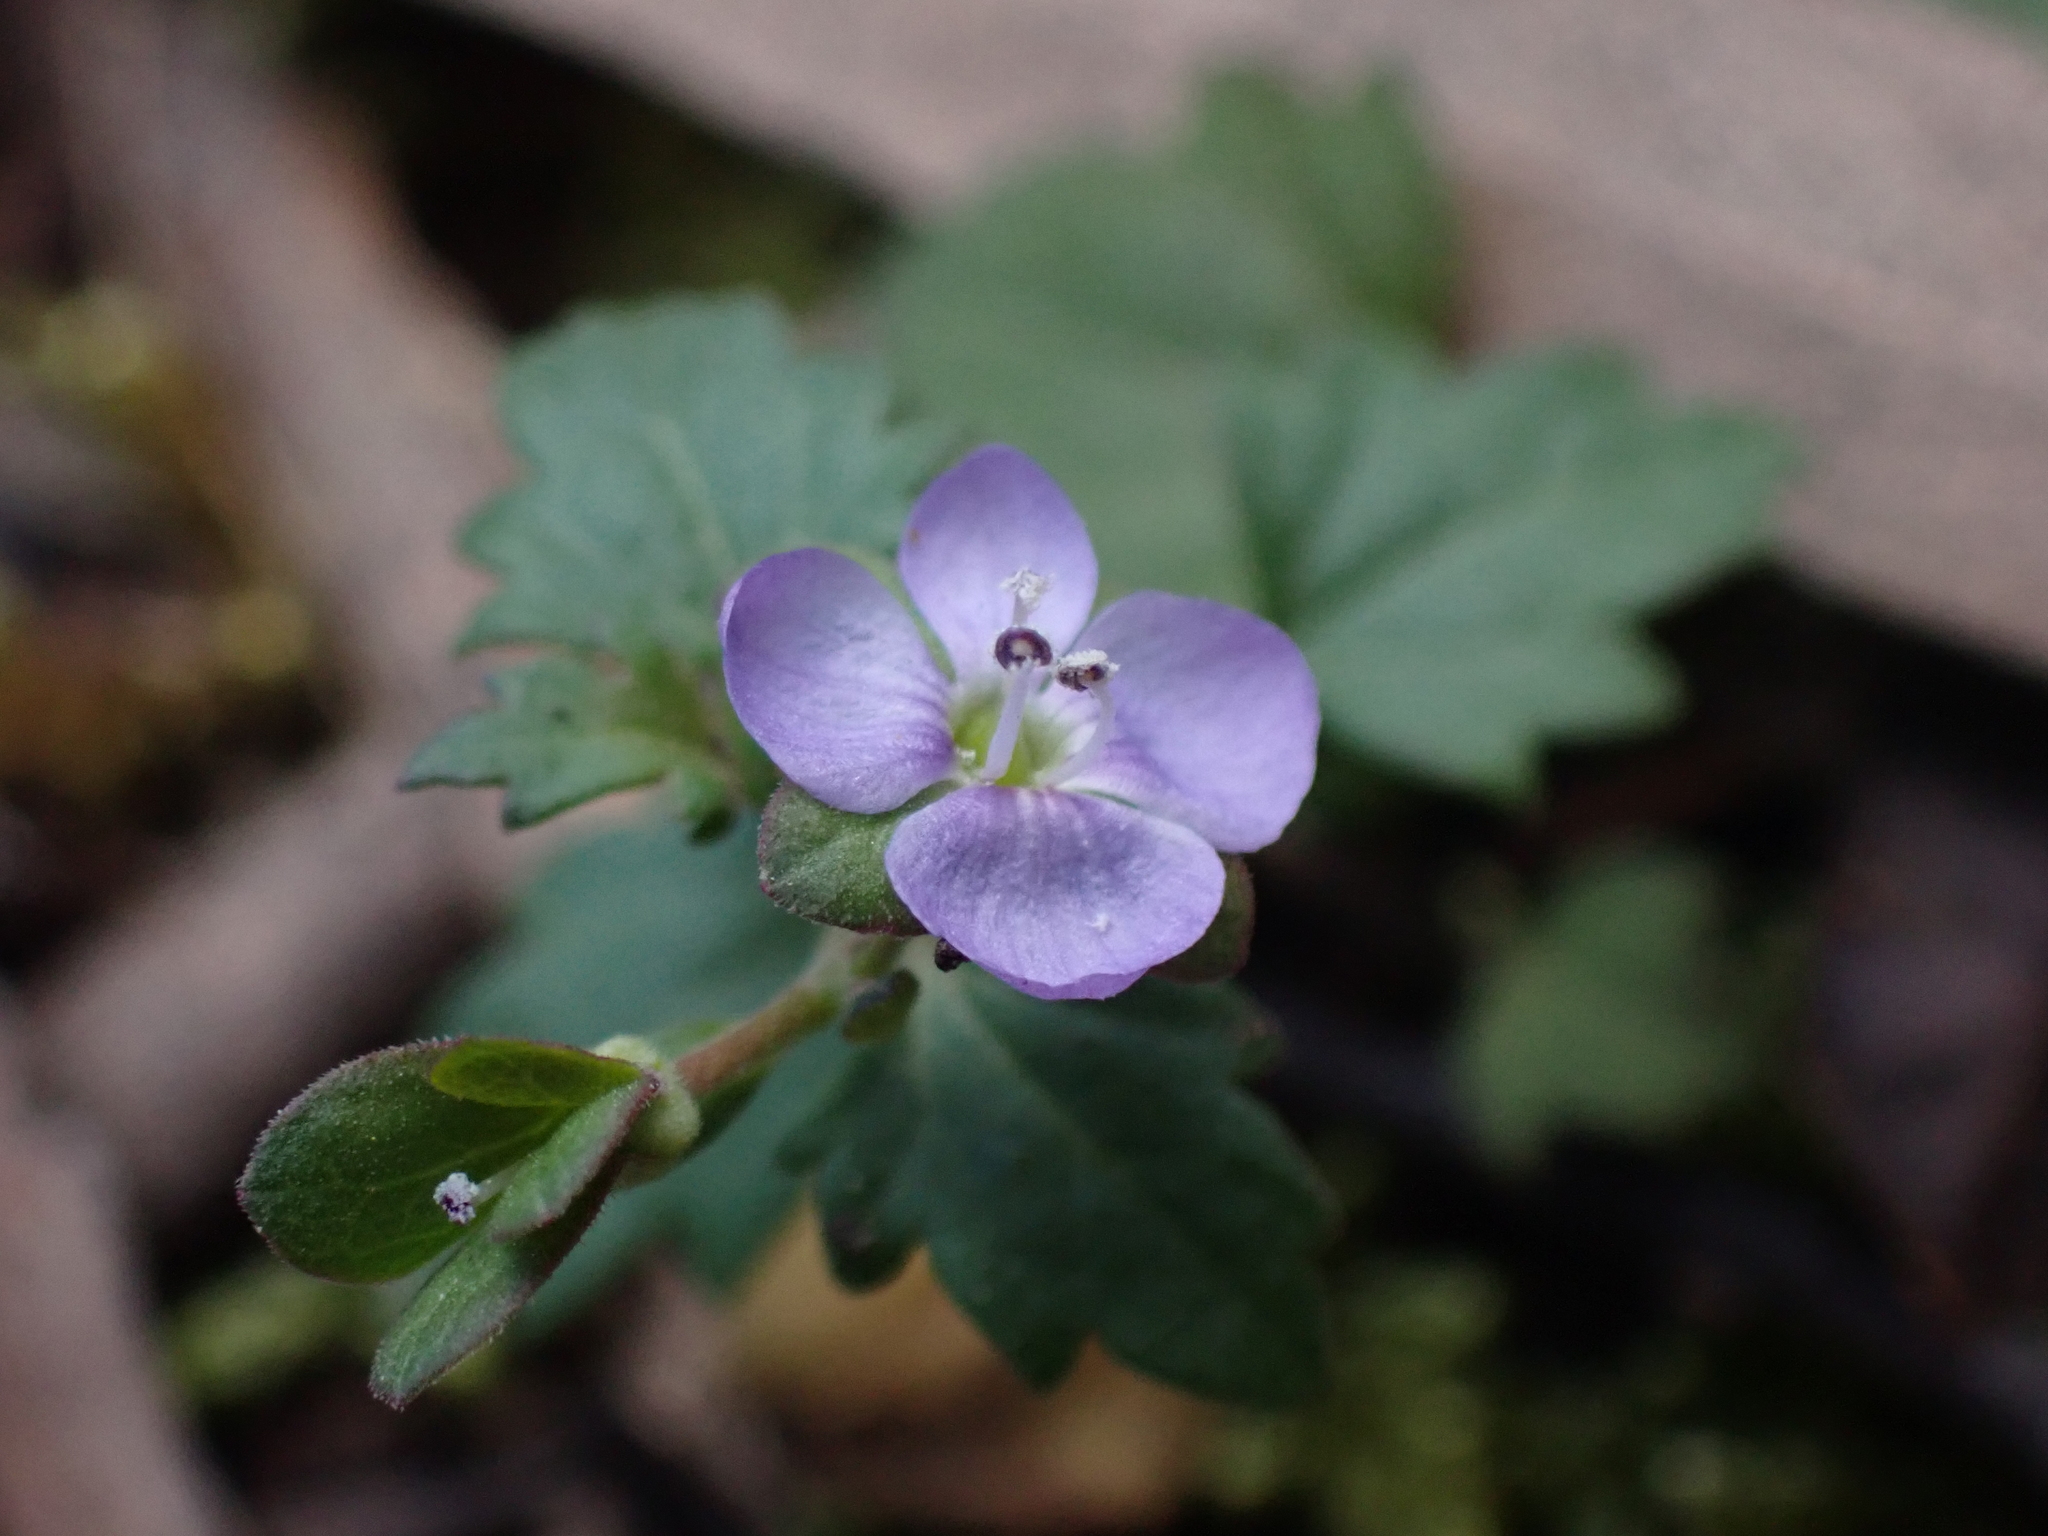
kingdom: Plantae
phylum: Tracheophyta
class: Magnoliopsida
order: Lamiales
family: Plantaginaceae
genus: Veronica
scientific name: Veronica plebeia
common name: Speedwell
